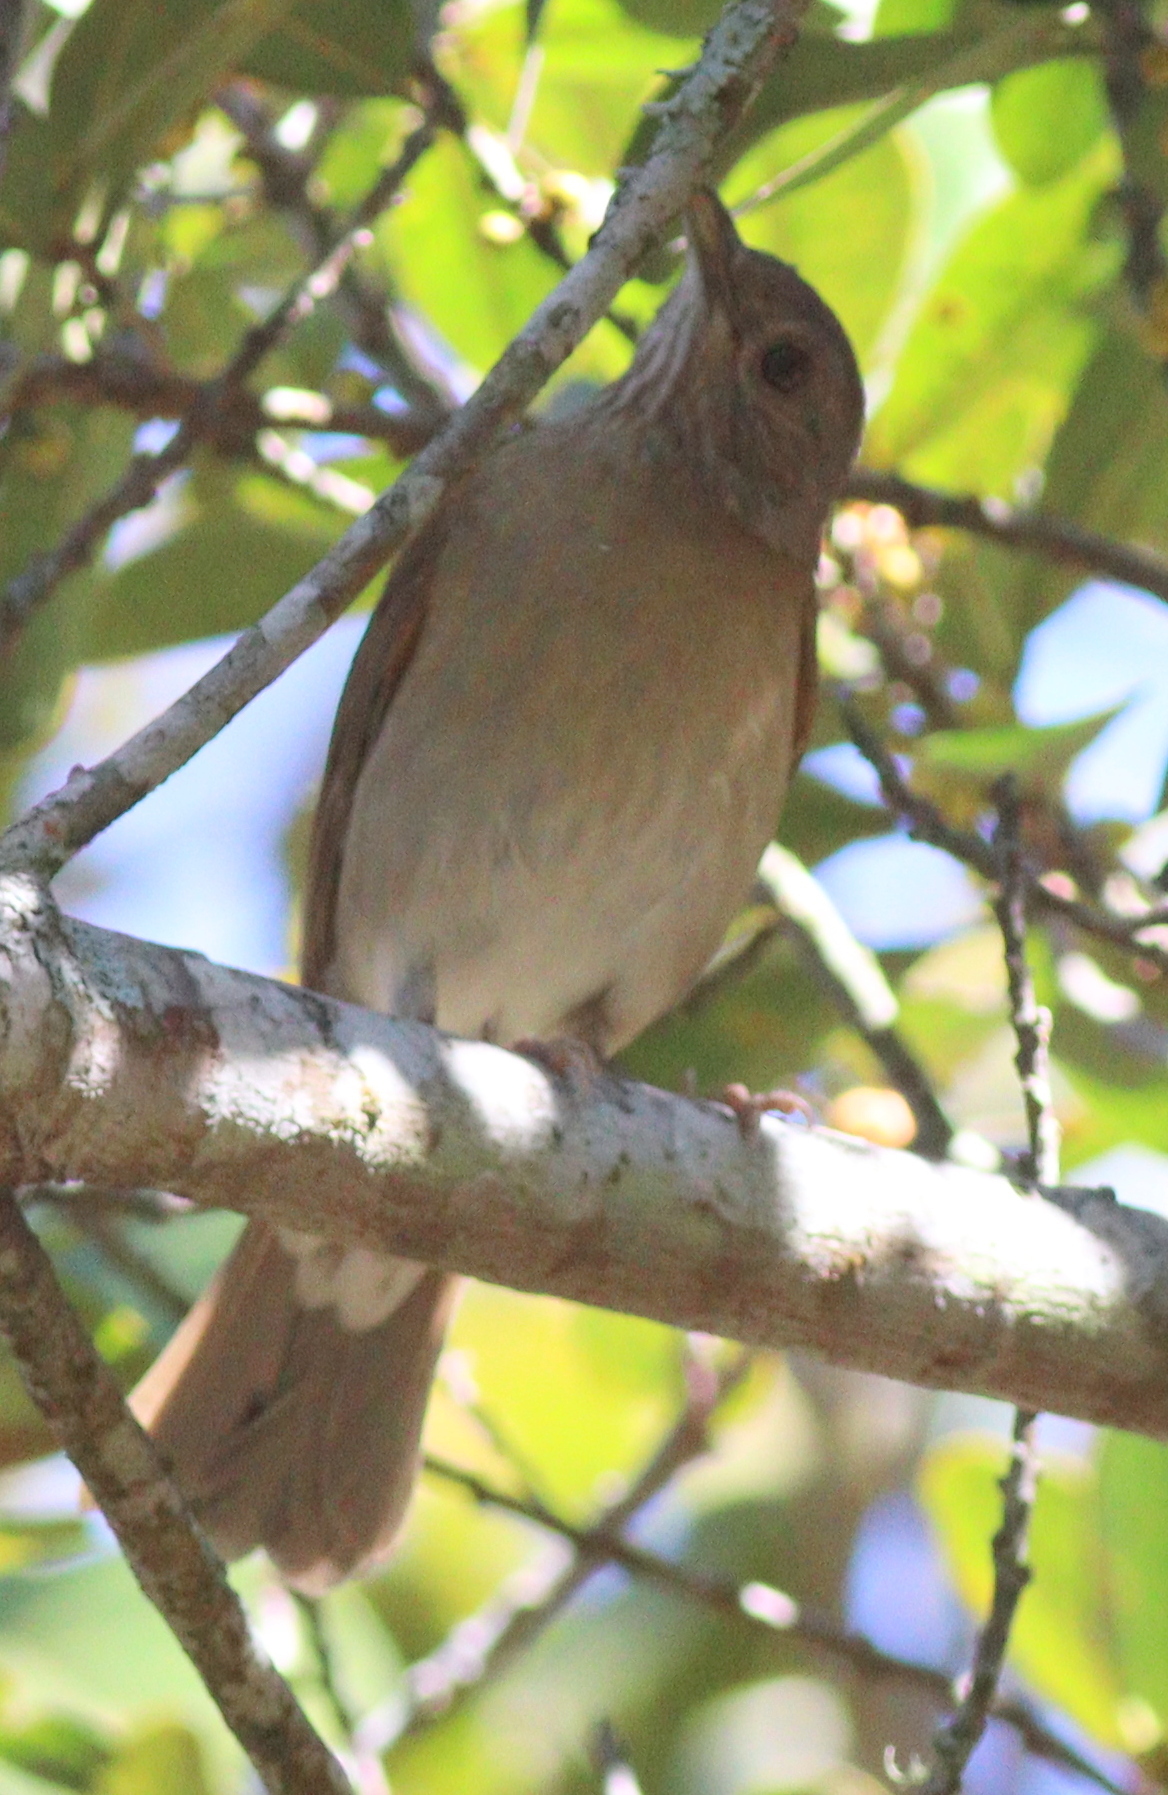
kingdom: Animalia
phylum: Chordata
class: Aves
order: Passeriformes
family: Turdidae
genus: Turdus
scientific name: Turdus leucomelas
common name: Pale-breasted thrush
